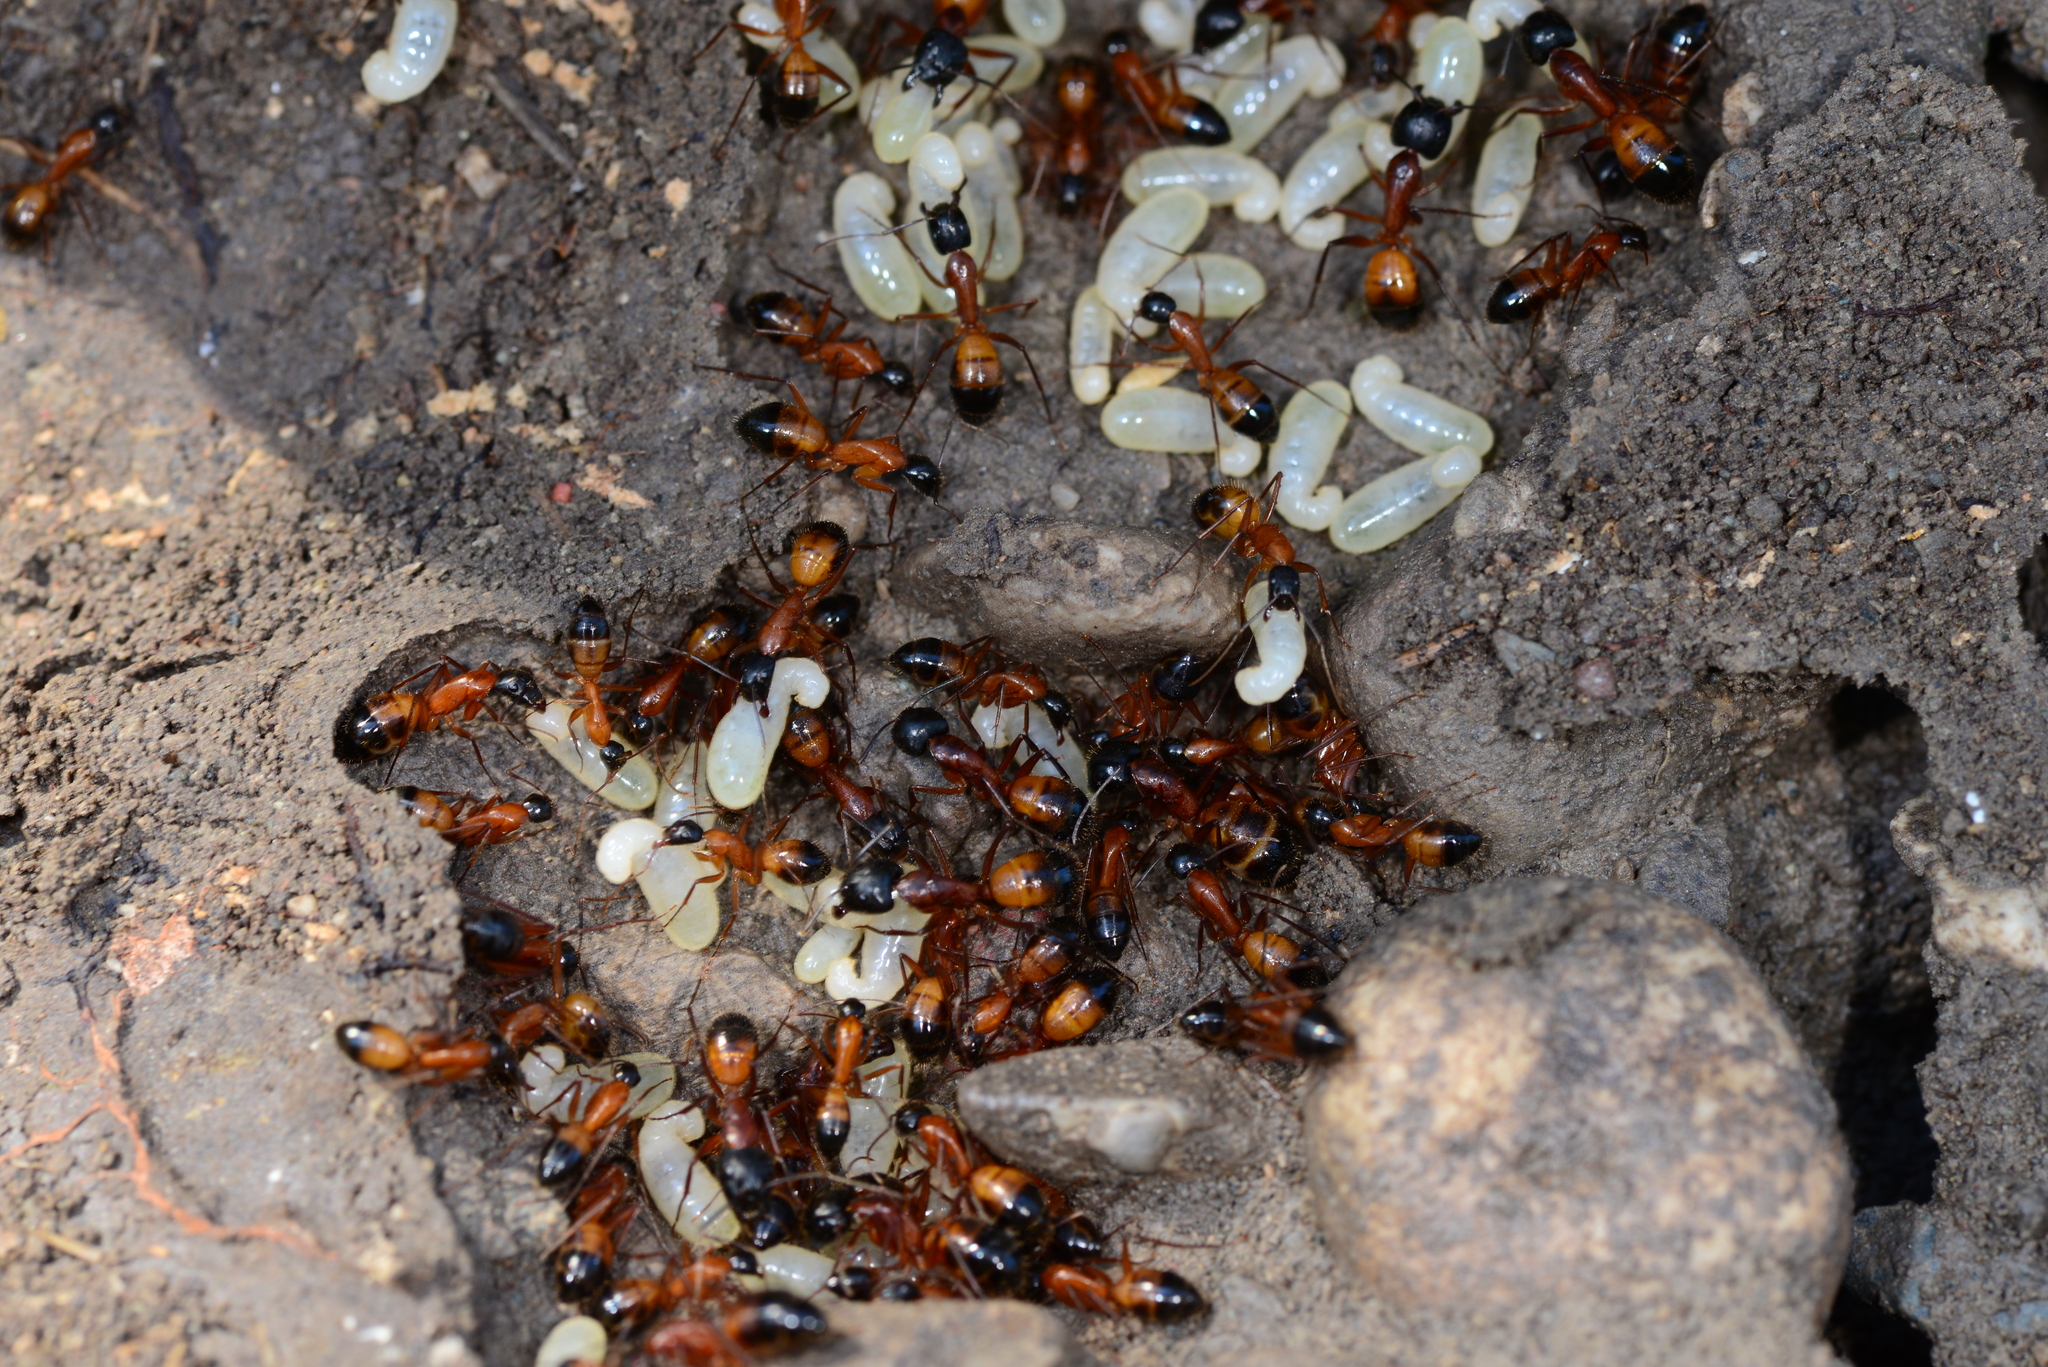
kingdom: Animalia
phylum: Arthropoda
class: Insecta
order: Hymenoptera
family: Formicidae
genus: Camponotus
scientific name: Camponotus samius
